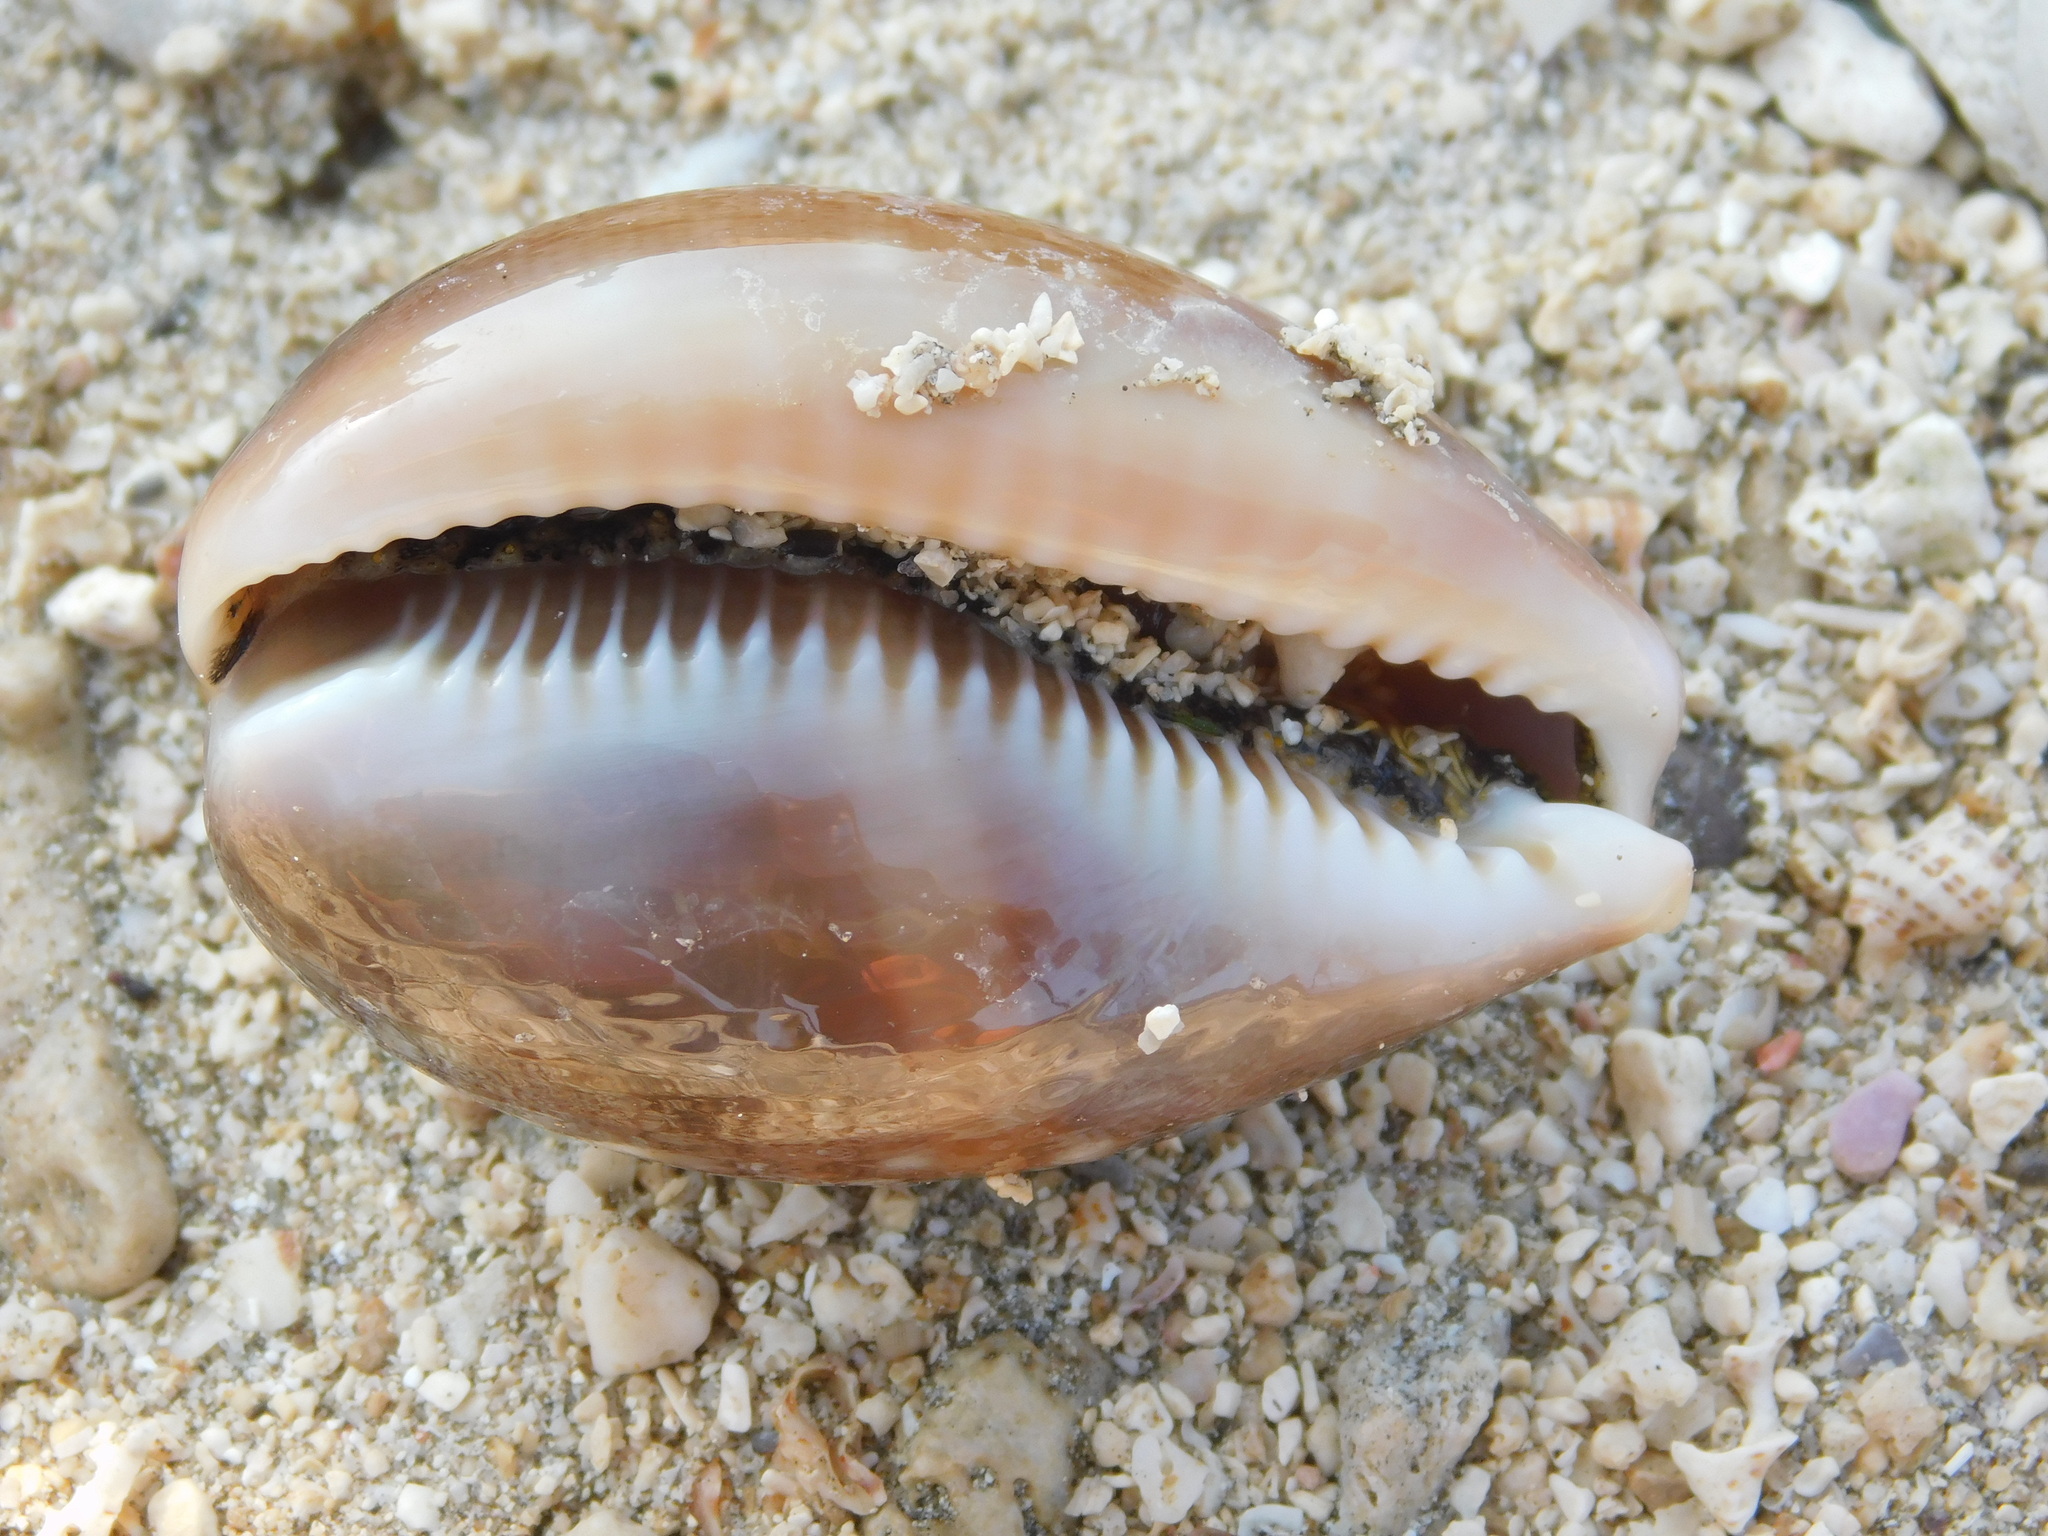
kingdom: Animalia
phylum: Mollusca
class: Gastropoda
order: Littorinimorpha
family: Cypraeidae
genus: Lyncina
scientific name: Lyncina vitellus
